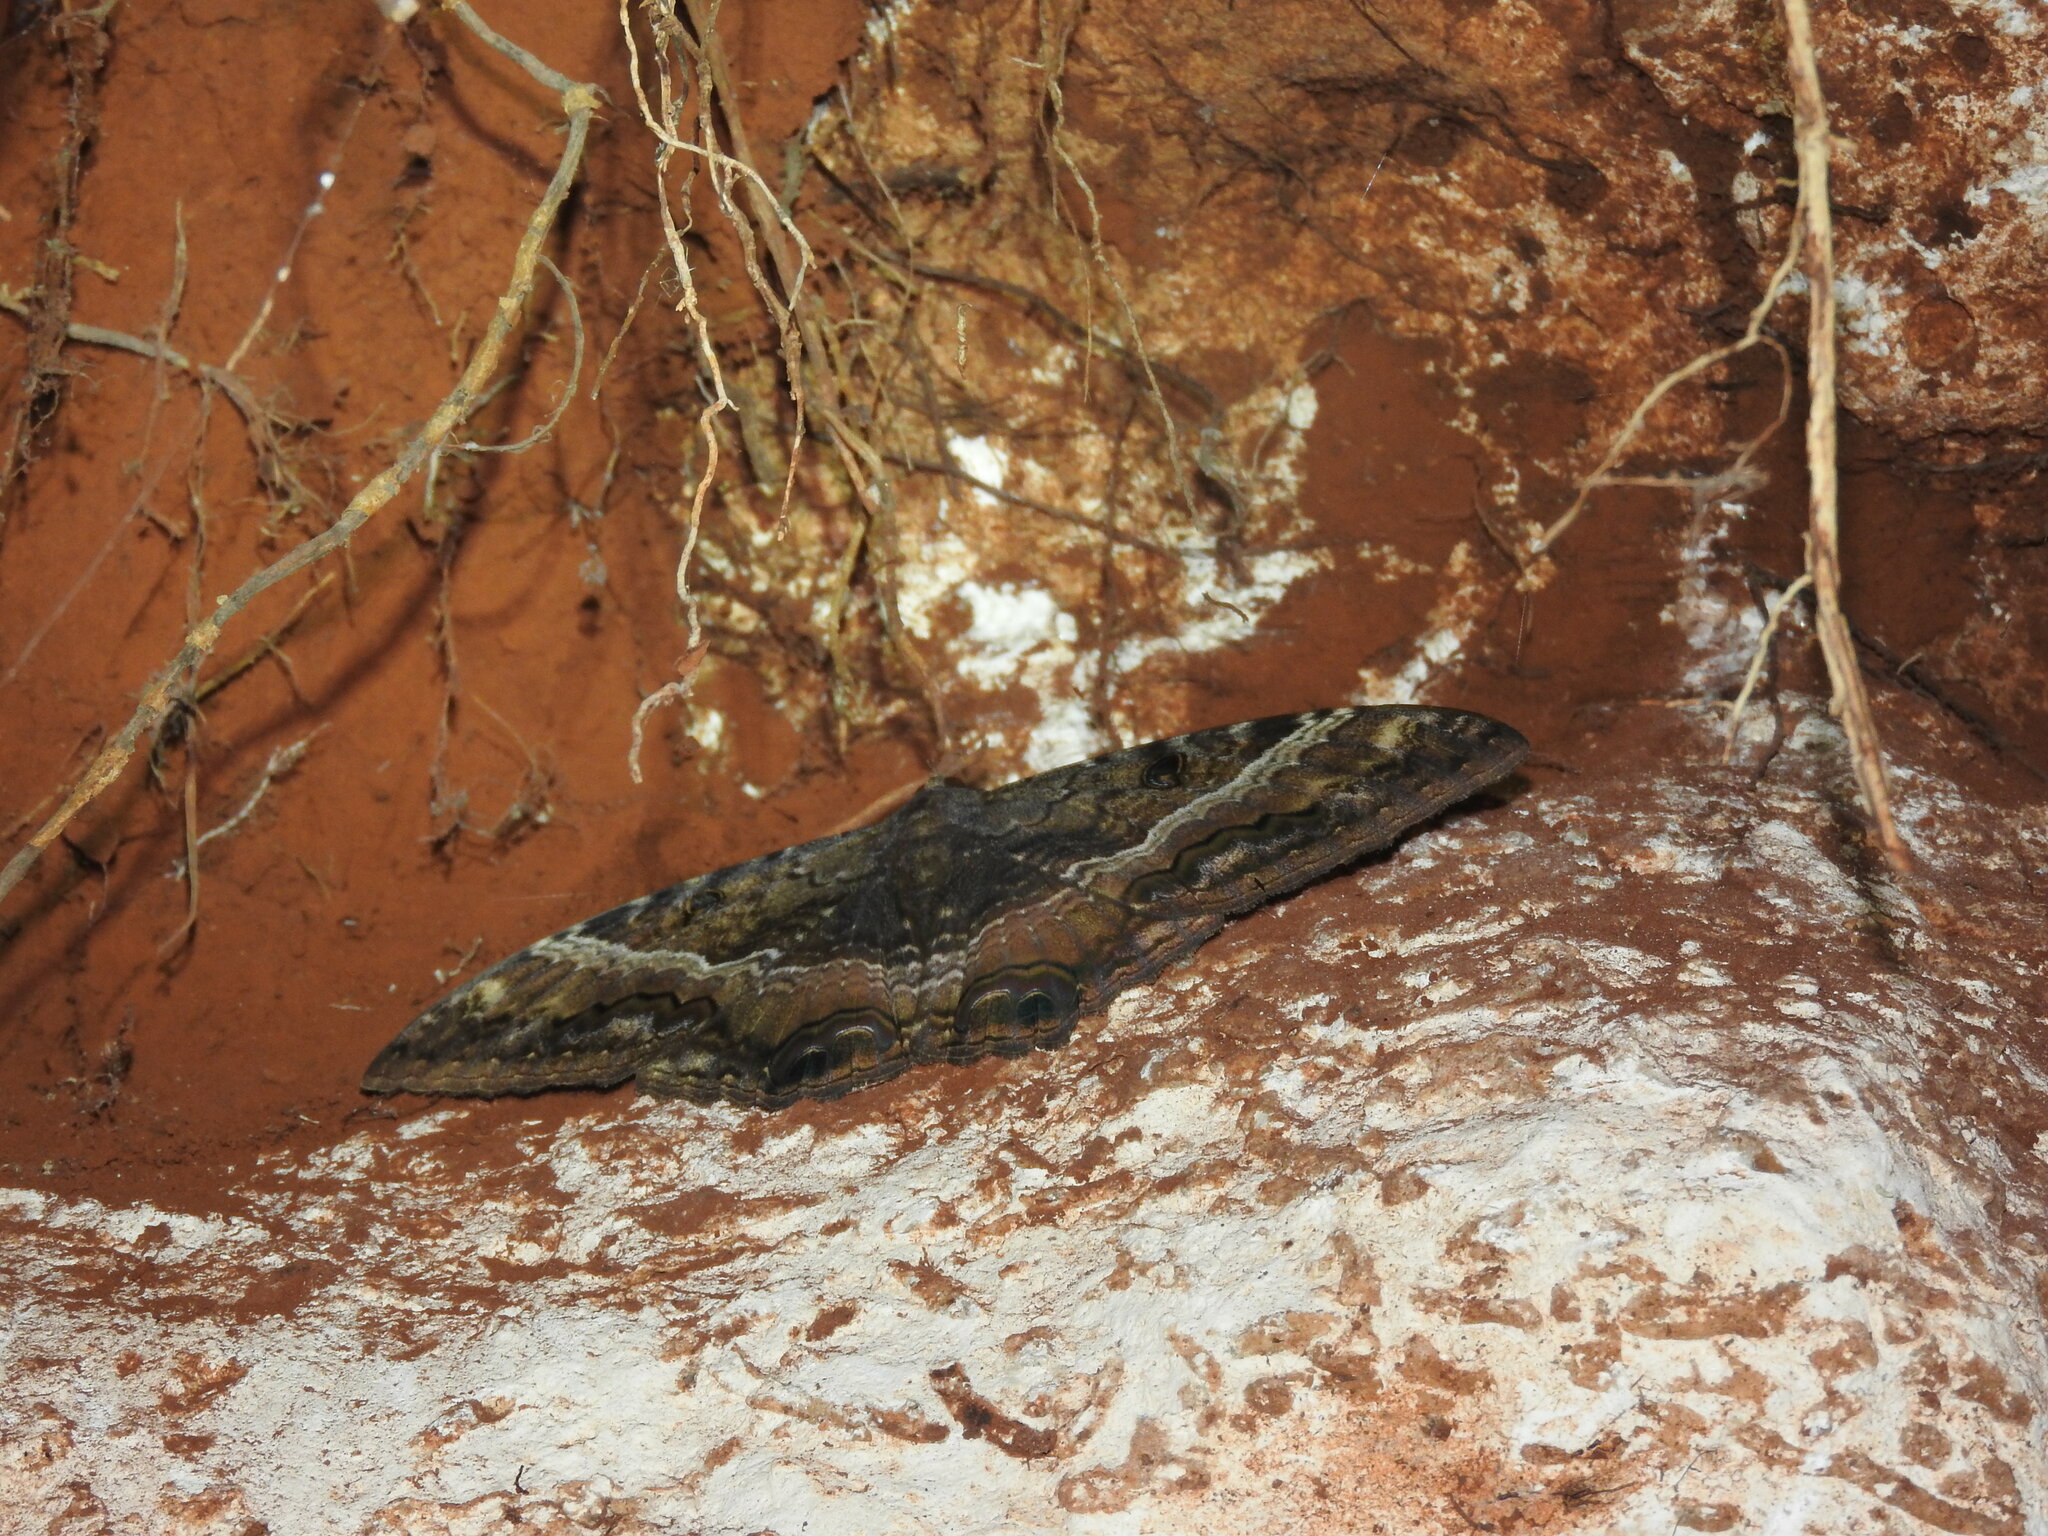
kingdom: Animalia
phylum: Arthropoda
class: Insecta
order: Lepidoptera
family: Erebidae
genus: Ascalapha
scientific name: Ascalapha odorata
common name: Black witch
